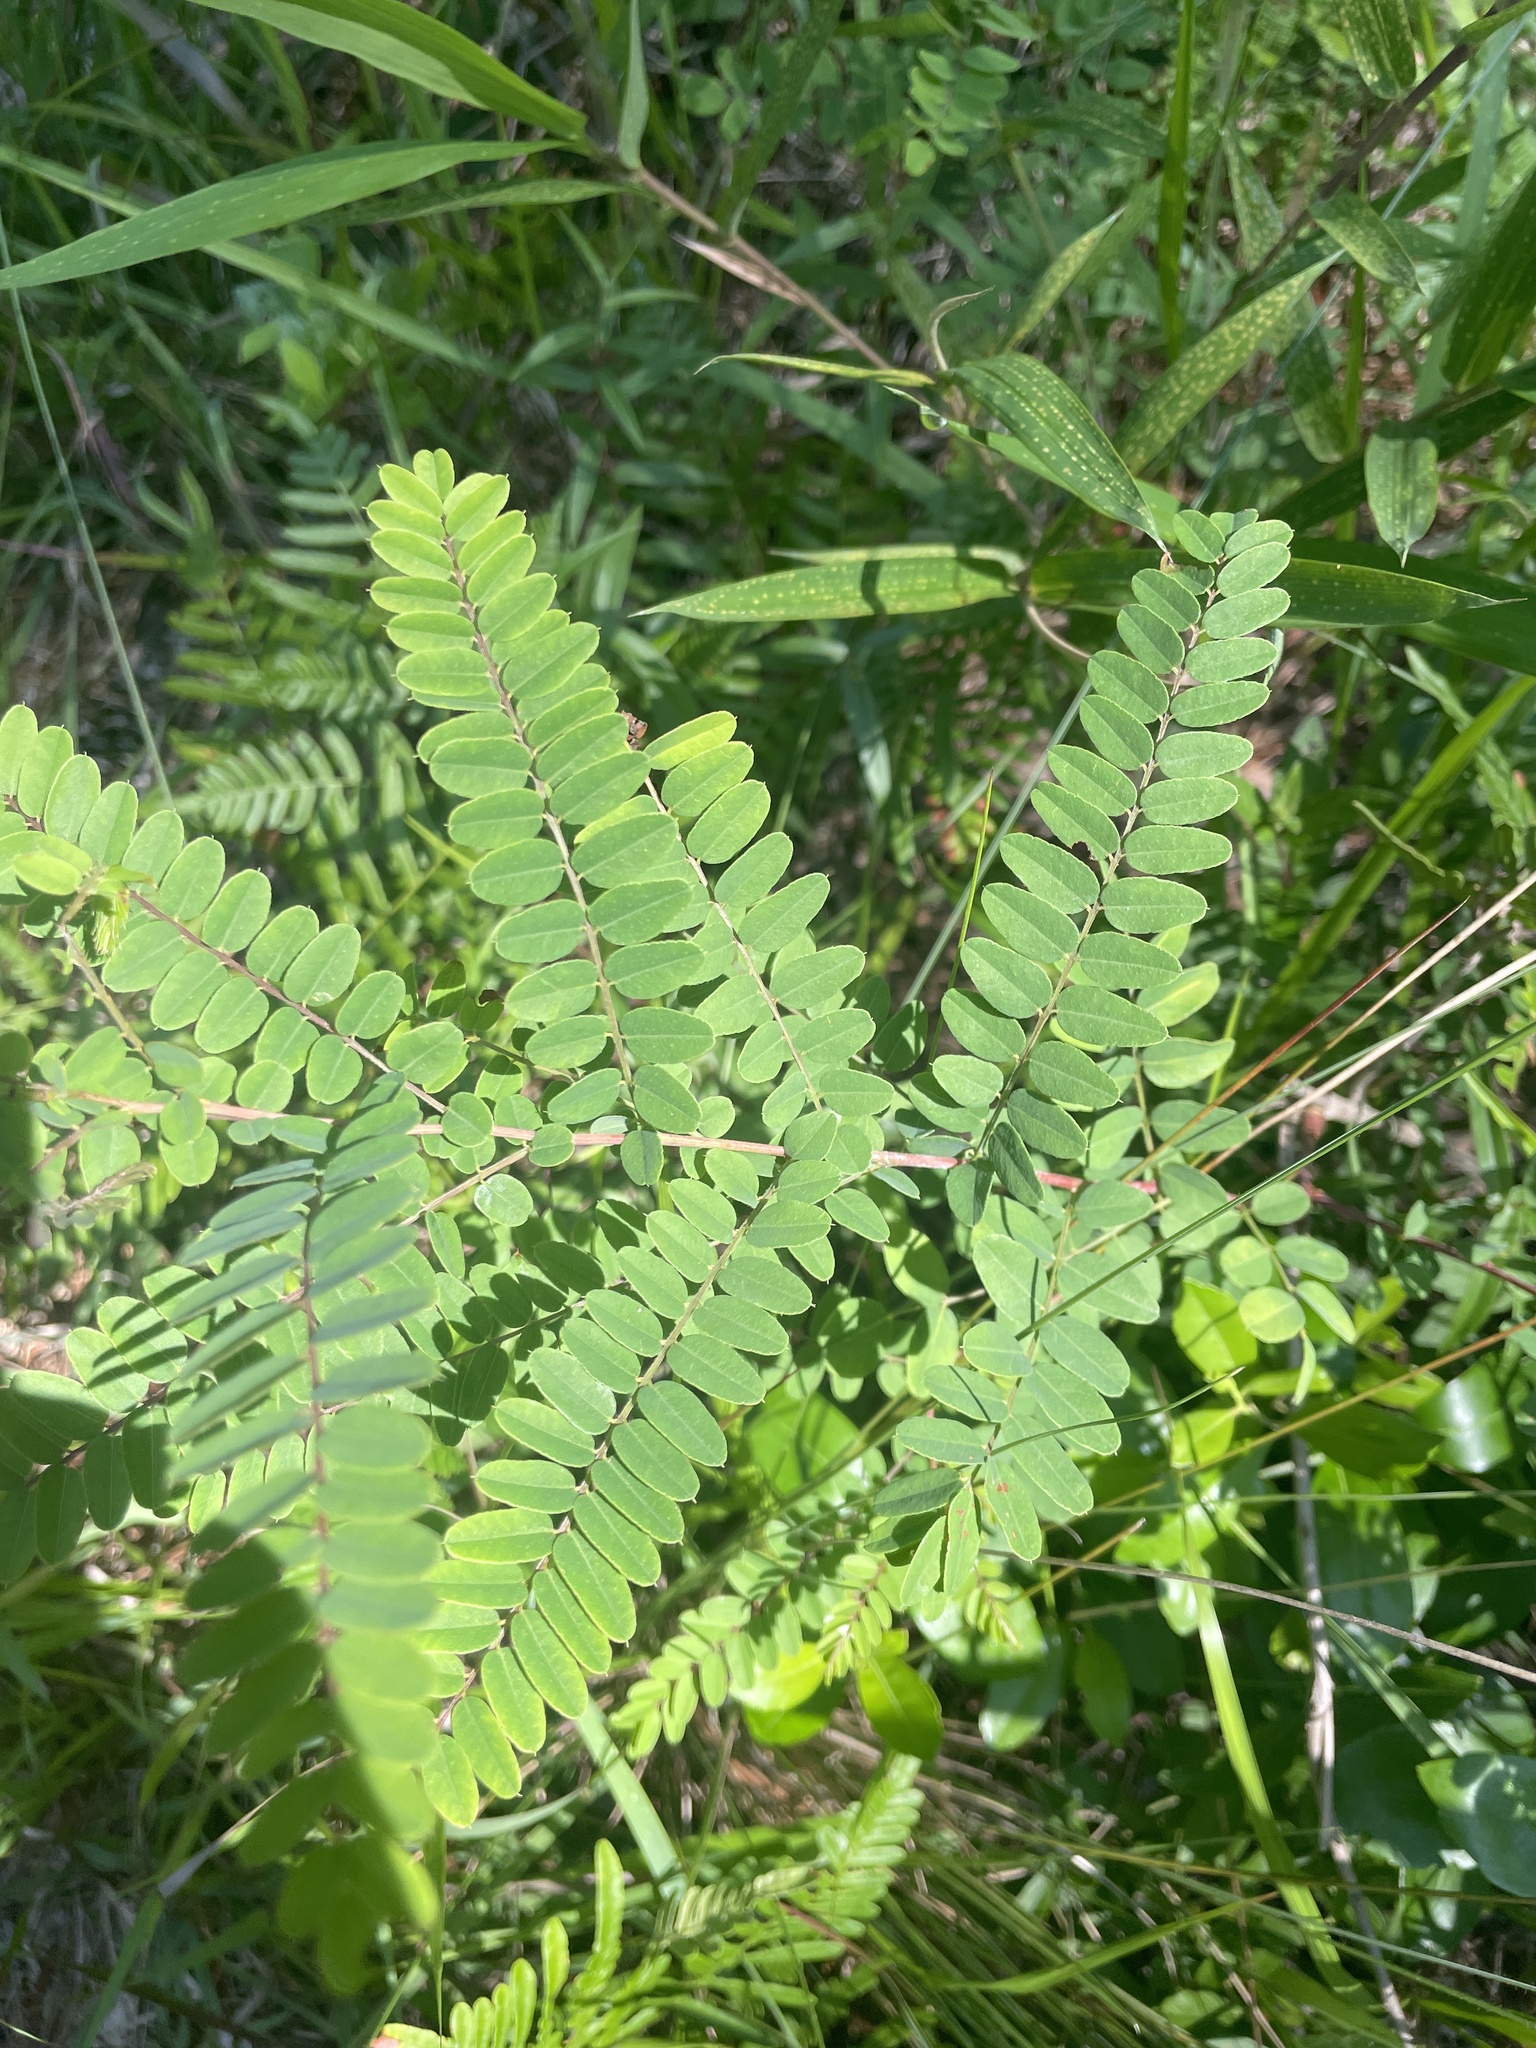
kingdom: Plantae
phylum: Tracheophyta
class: Magnoliopsida
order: Fabales
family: Fabaceae
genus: Amorpha
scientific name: Amorpha georgiana
